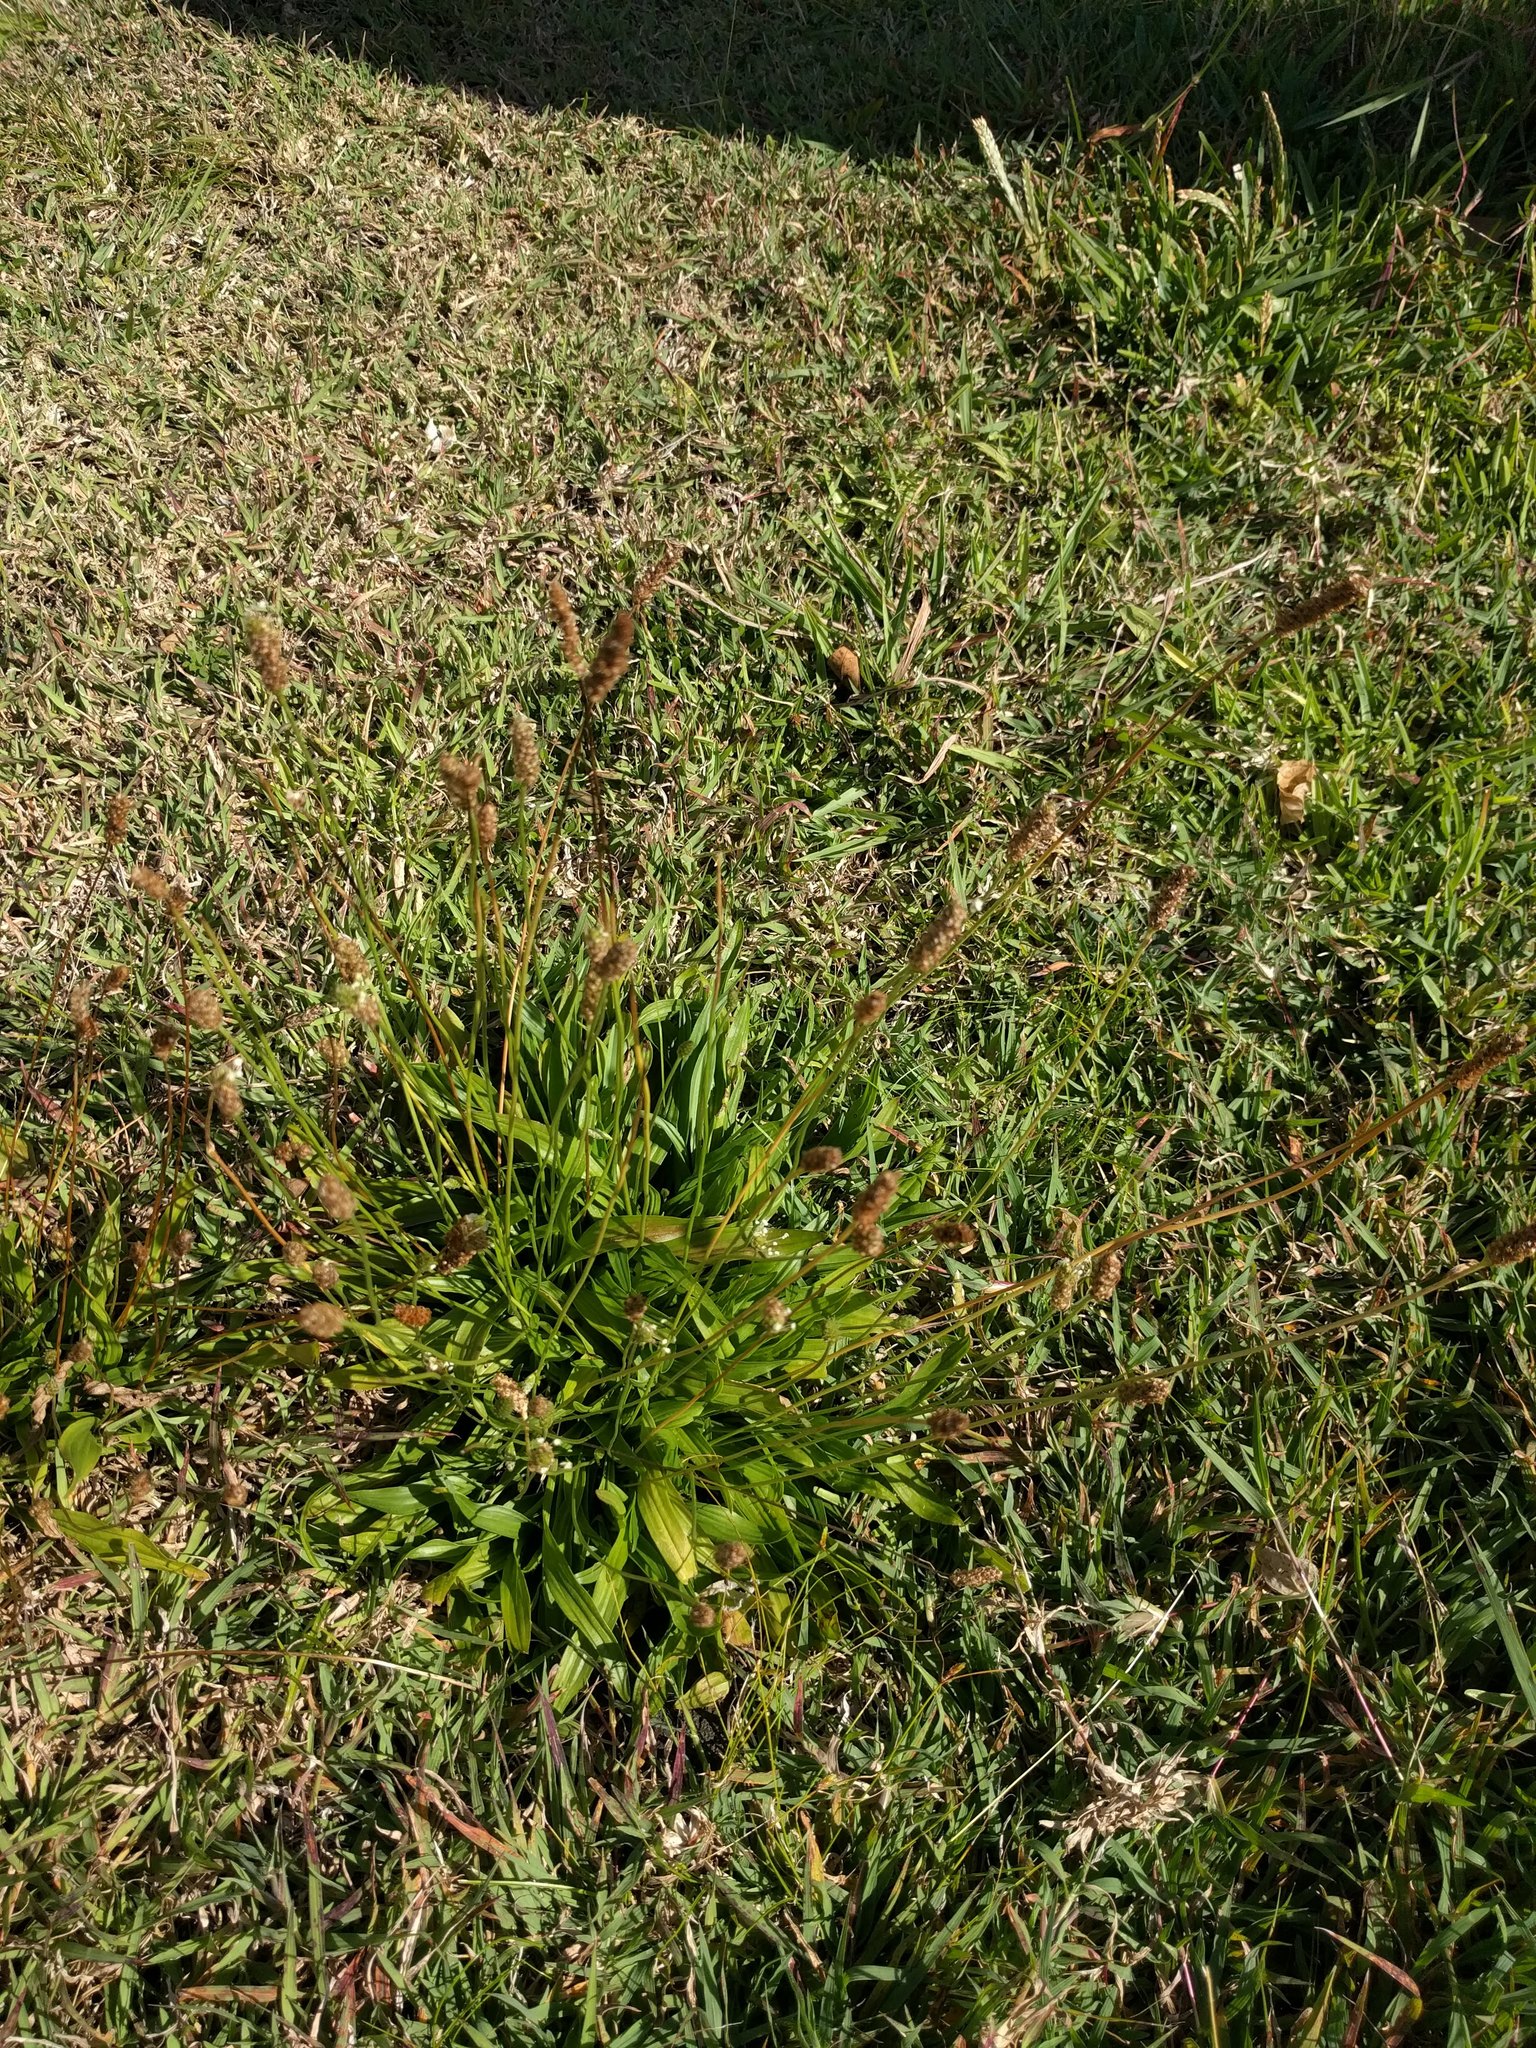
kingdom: Plantae
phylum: Tracheophyta
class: Magnoliopsida
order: Lamiales
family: Plantaginaceae
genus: Plantago
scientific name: Plantago lanceolata
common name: Ribwort plantain
